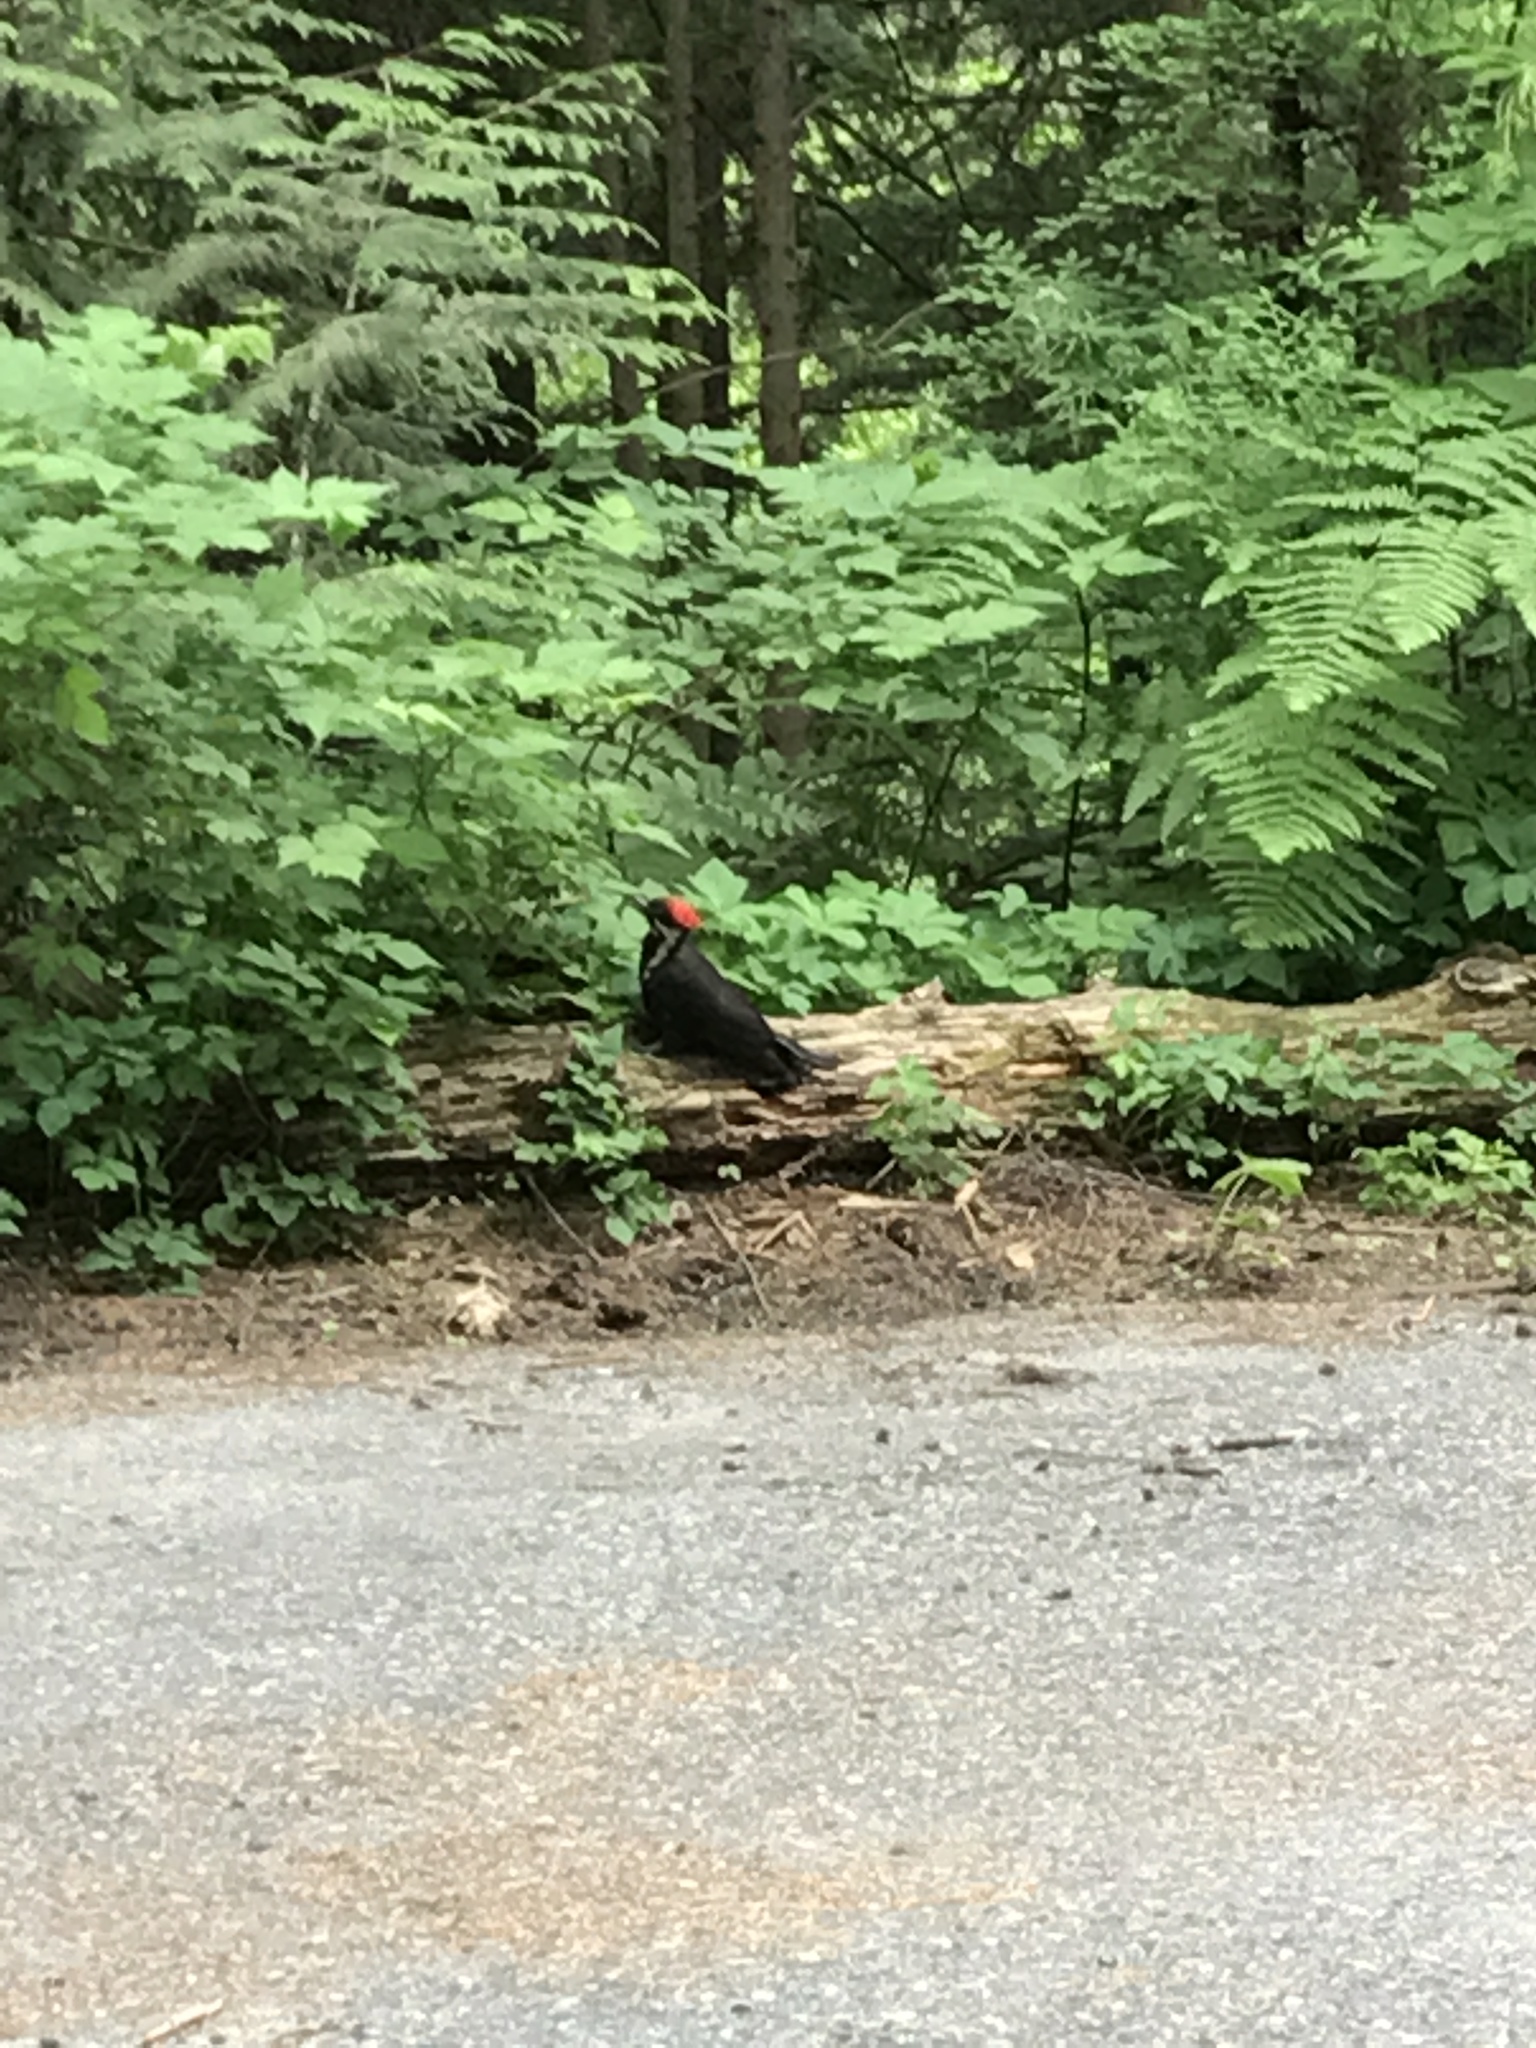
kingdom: Animalia
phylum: Chordata
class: Aves
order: Piciformes
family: Picidae
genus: Dryocopus
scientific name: Dryocopus pileatus
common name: Pileated woodpecker
